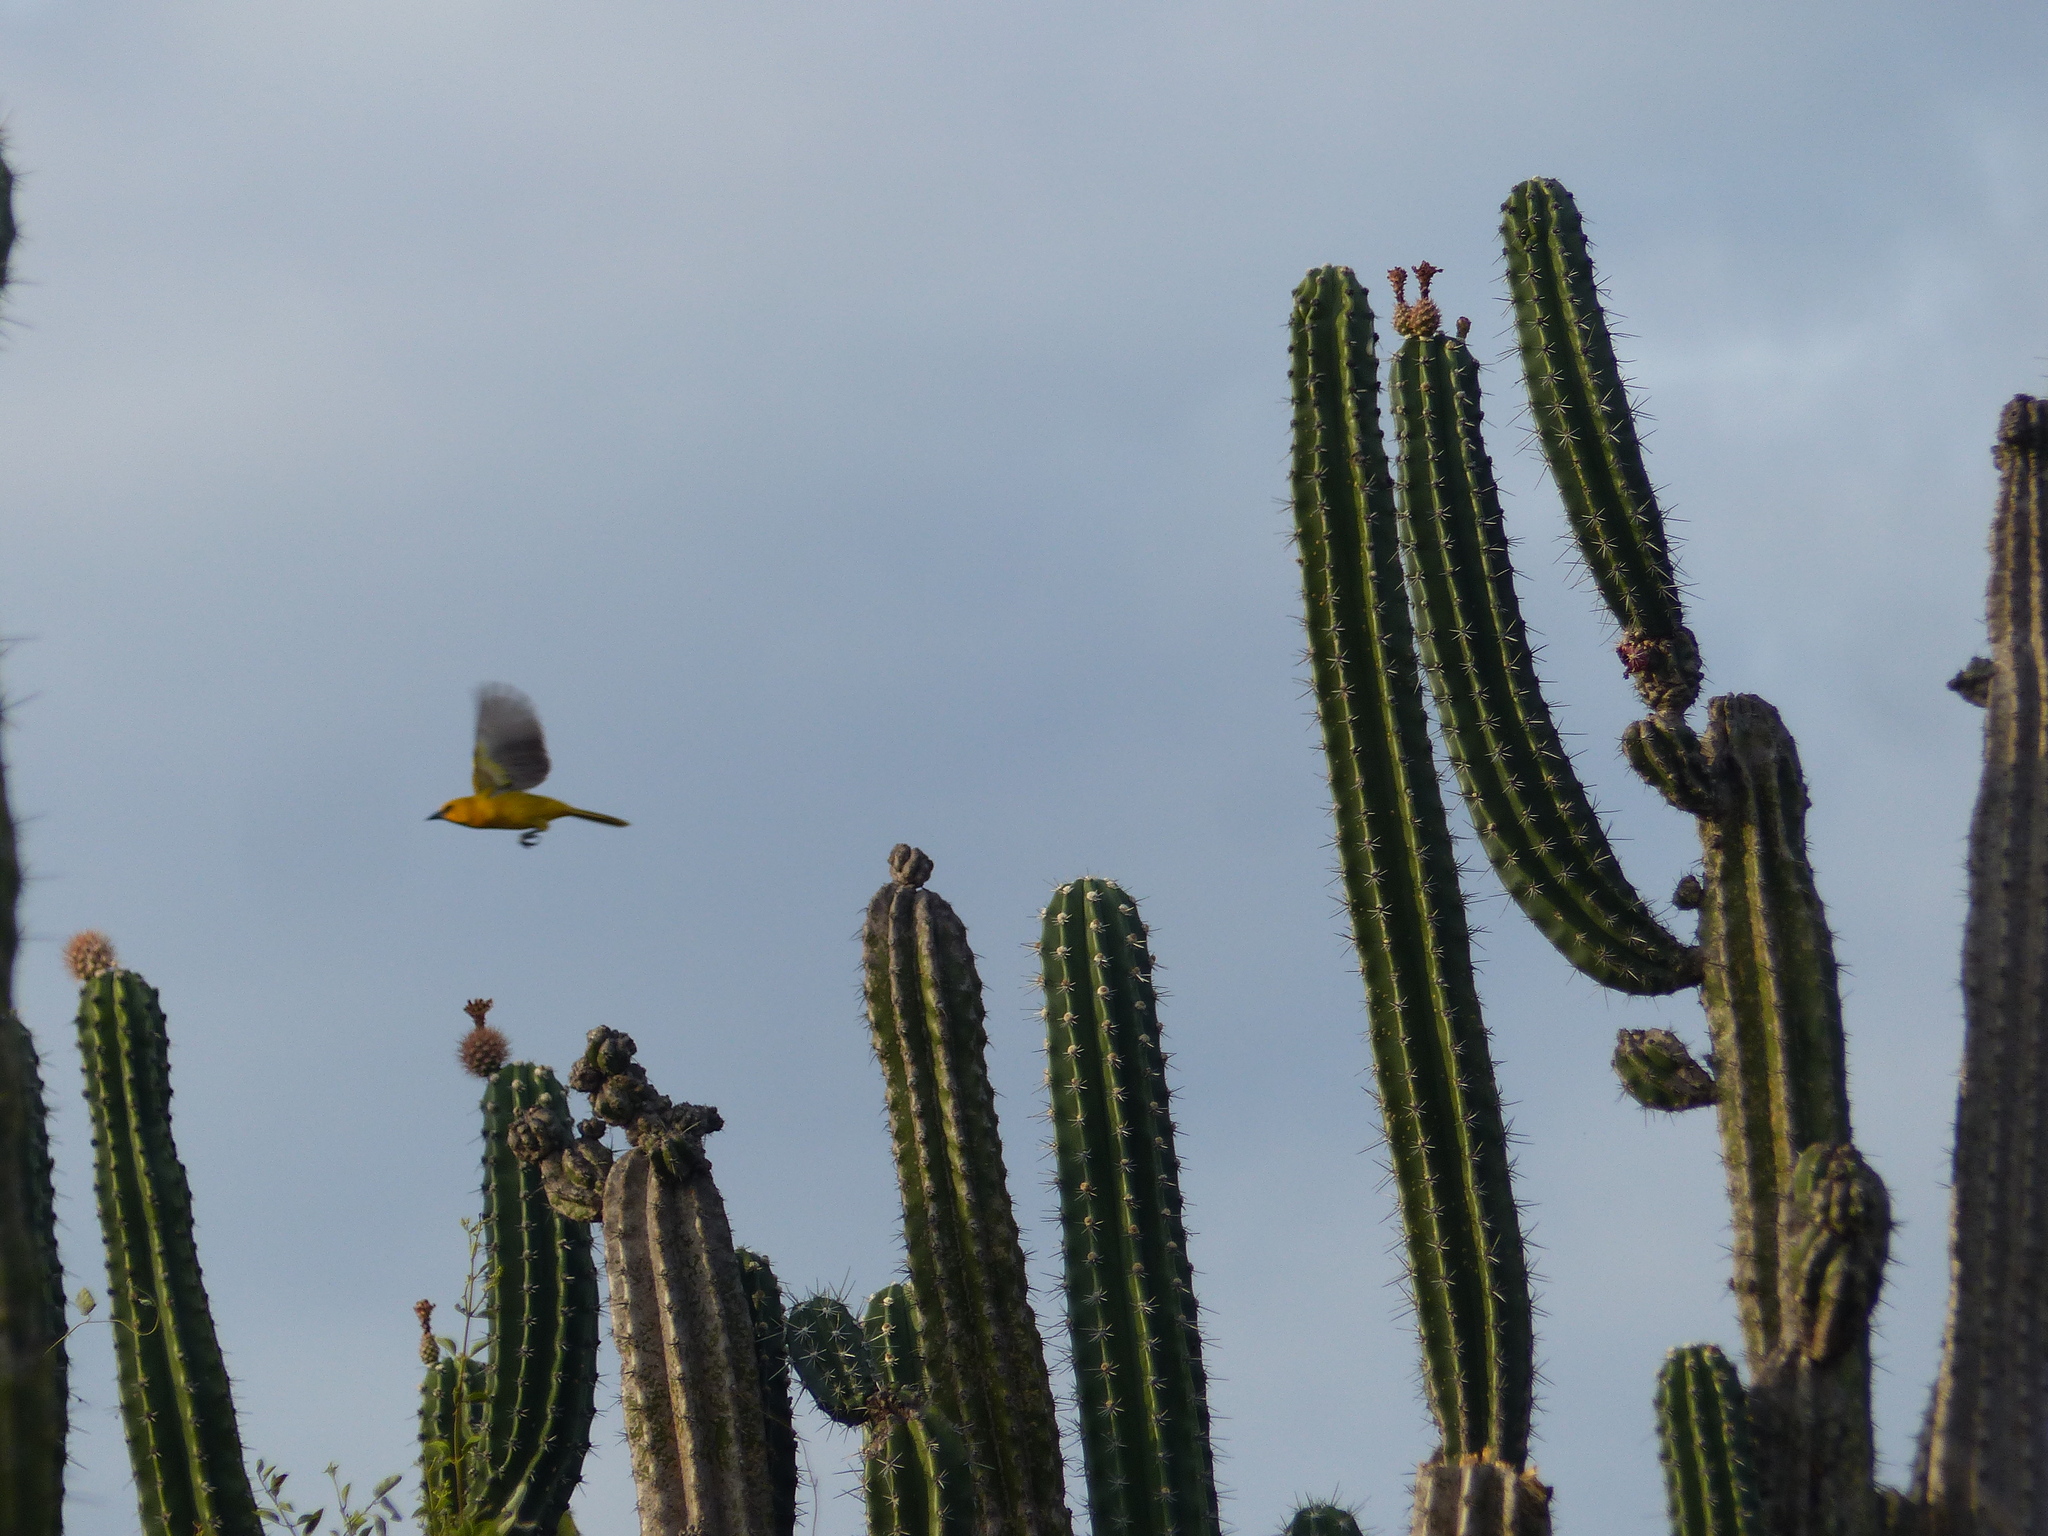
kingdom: Animalia
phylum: Chordata
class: Aves
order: Passeriformes
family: Icteridae
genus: Icterus
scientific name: Icterus nigrogularis
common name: Yellow oriole
